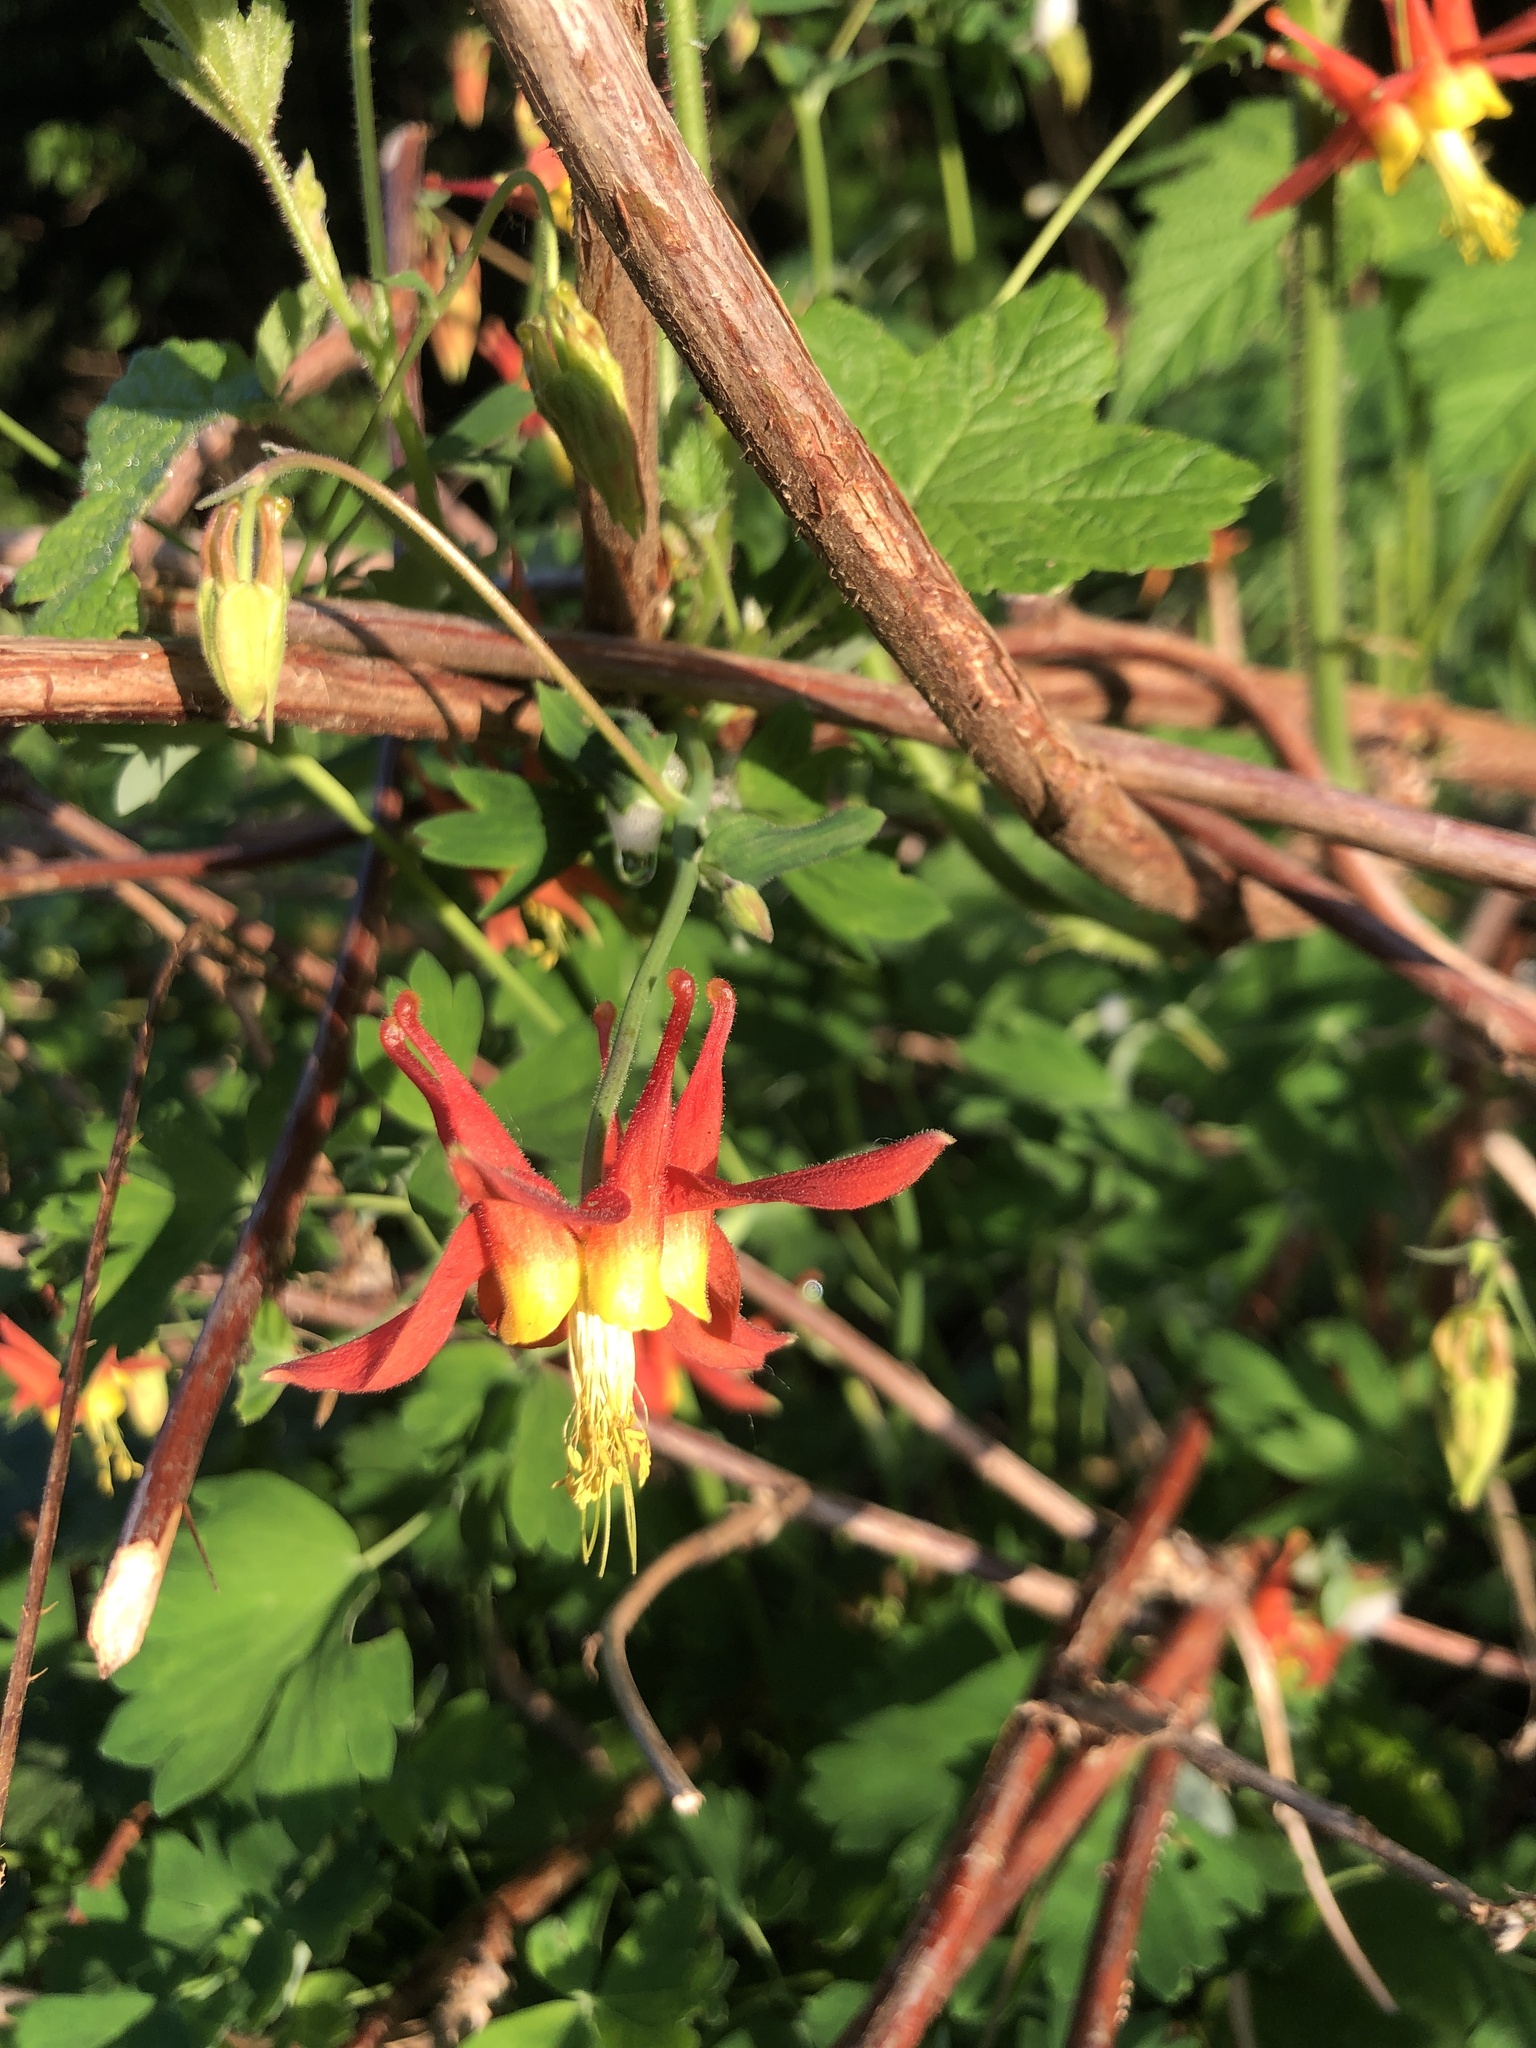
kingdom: Plantae
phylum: Tracheophyta
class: Magnoliopsida
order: Ranunculales
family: Ranunculaceae
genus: Aquilegia
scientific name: Aquilegia formosa
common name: Sitka columbine
